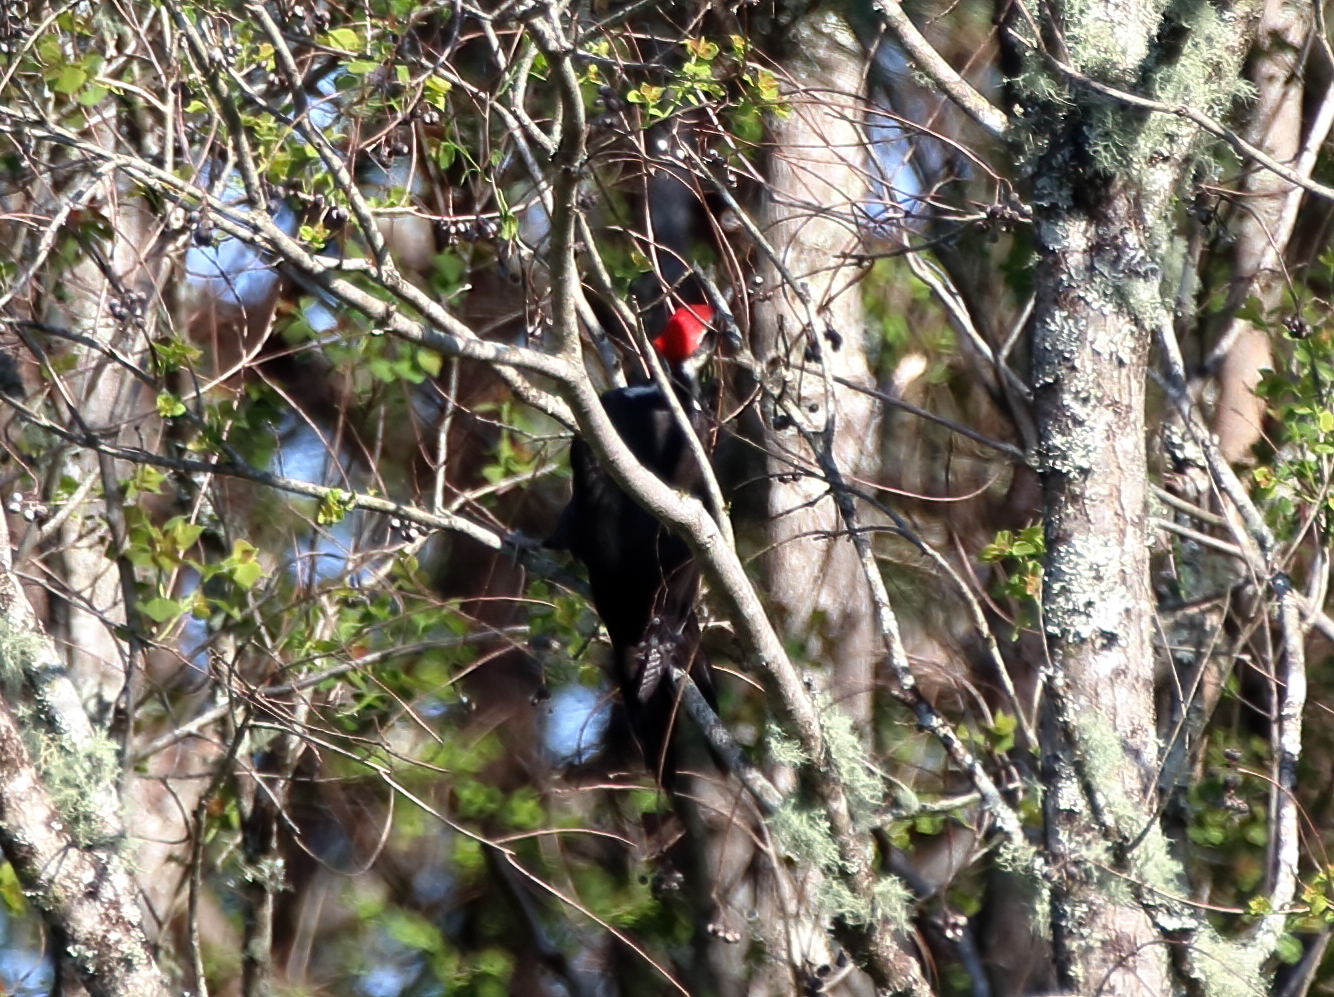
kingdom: Animalia
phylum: Chordata
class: Aves
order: Piciformes
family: Picidae
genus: Dryocopus
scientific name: Dryocopus pileatus
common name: Pileated woodpecker
